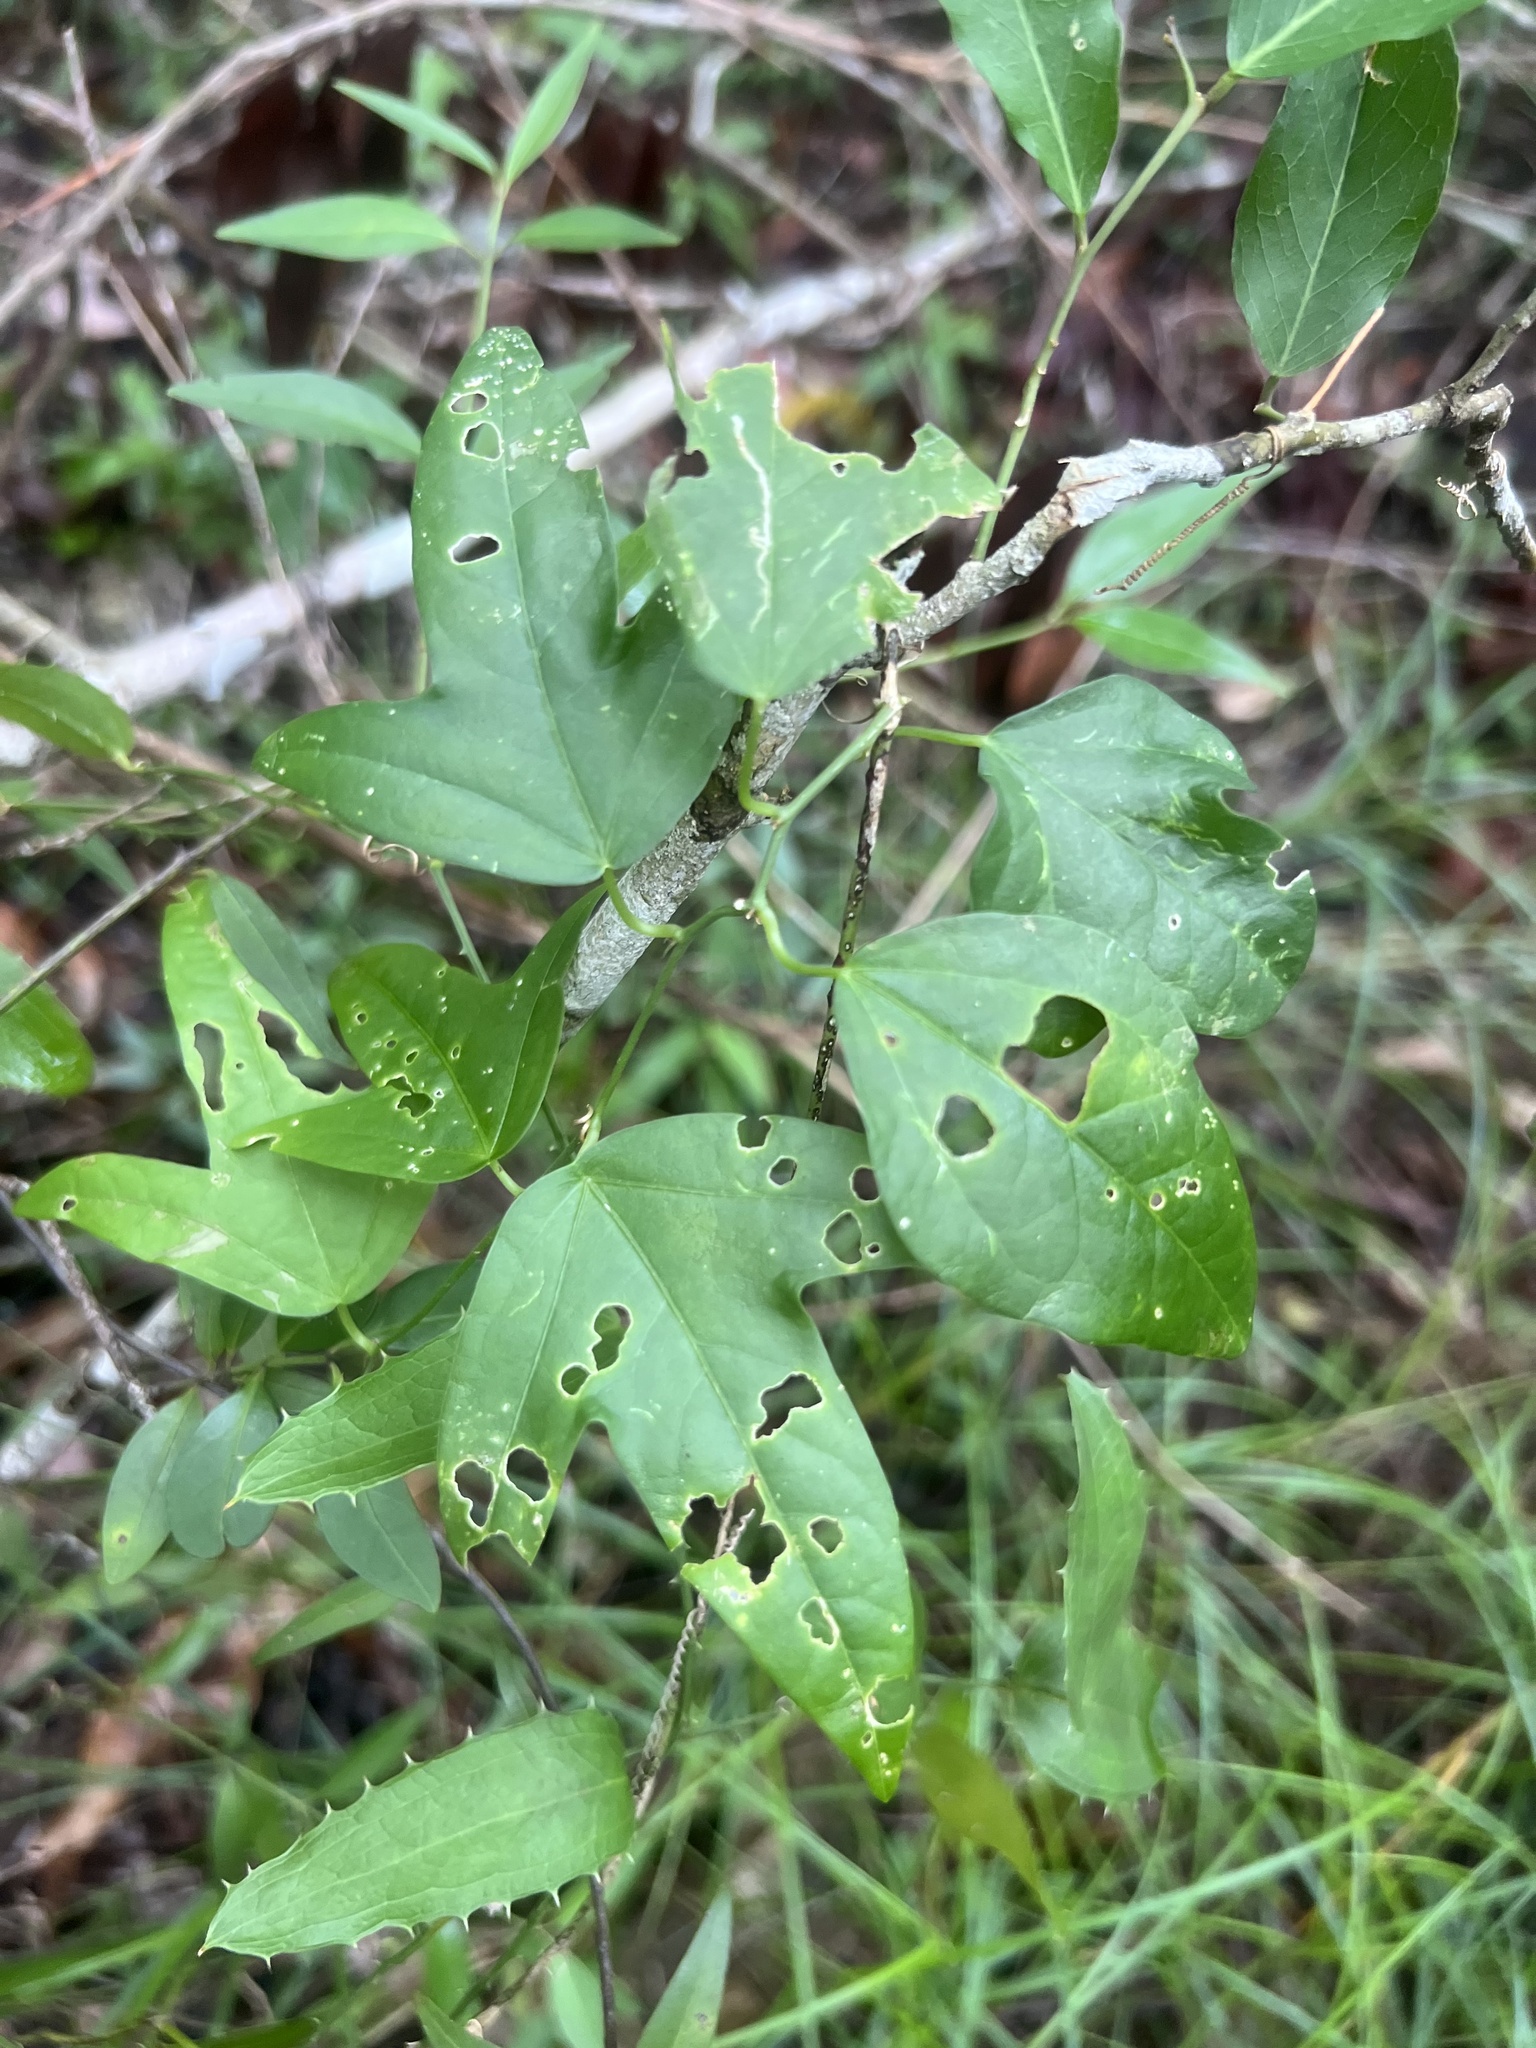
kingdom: Plantae
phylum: Tracheophyta
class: Magnoliopsida
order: Malpighiales
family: Passifloraceae
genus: Passiflora
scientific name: Passiflora pallida
